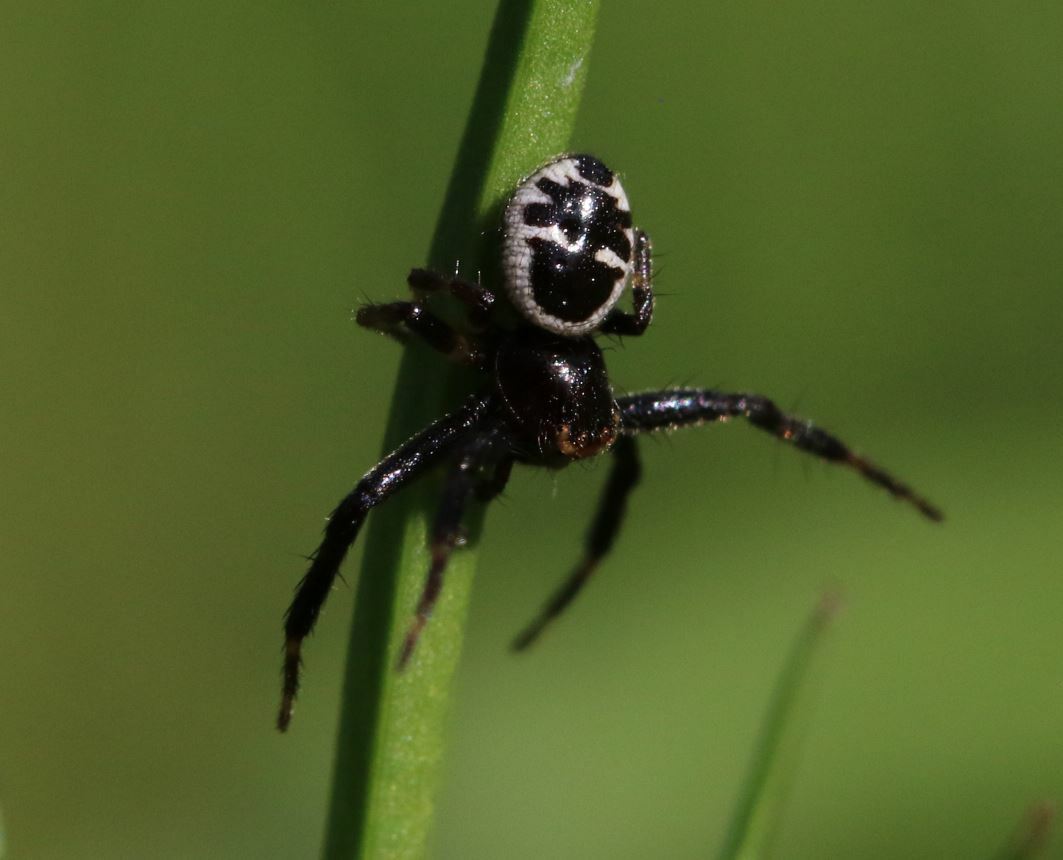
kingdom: Animalia
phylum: Arthropoda
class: Arachnida
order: Araneae
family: Thomisidae
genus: Synema
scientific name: Synema globosum
